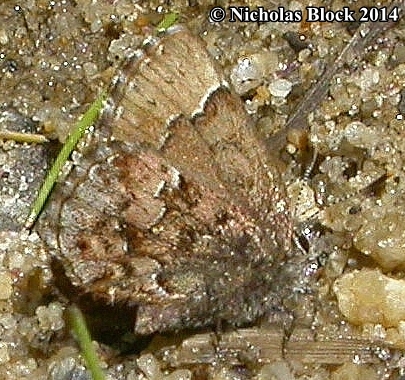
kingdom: Animalia
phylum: Arthropoda
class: Insecta
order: Lepidoptera
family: Lycaenidae
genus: Incisalia
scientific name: Incisalia lanoraieensis
